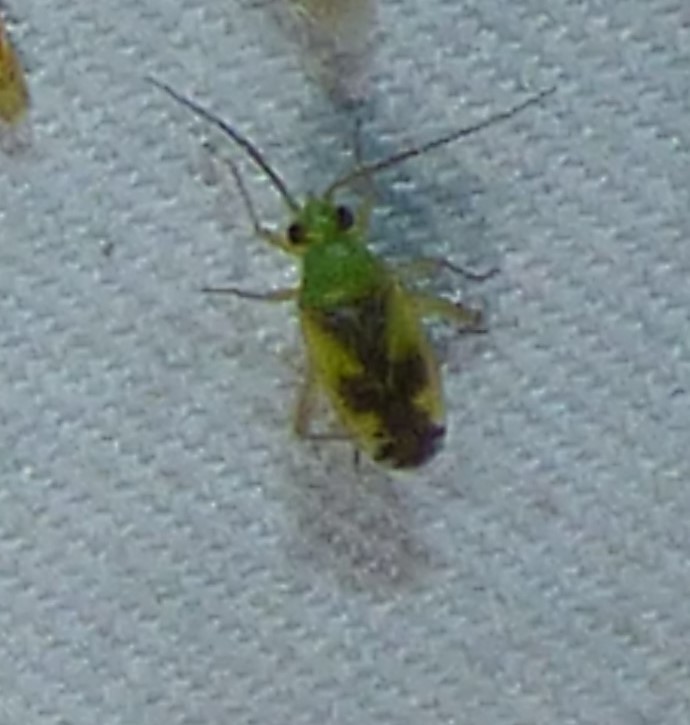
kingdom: Animalia
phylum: Arthropoda
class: Insecta
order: Hemiptera
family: Miridae
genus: Reuteroscopus
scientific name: Reuteroscopus ornatus
